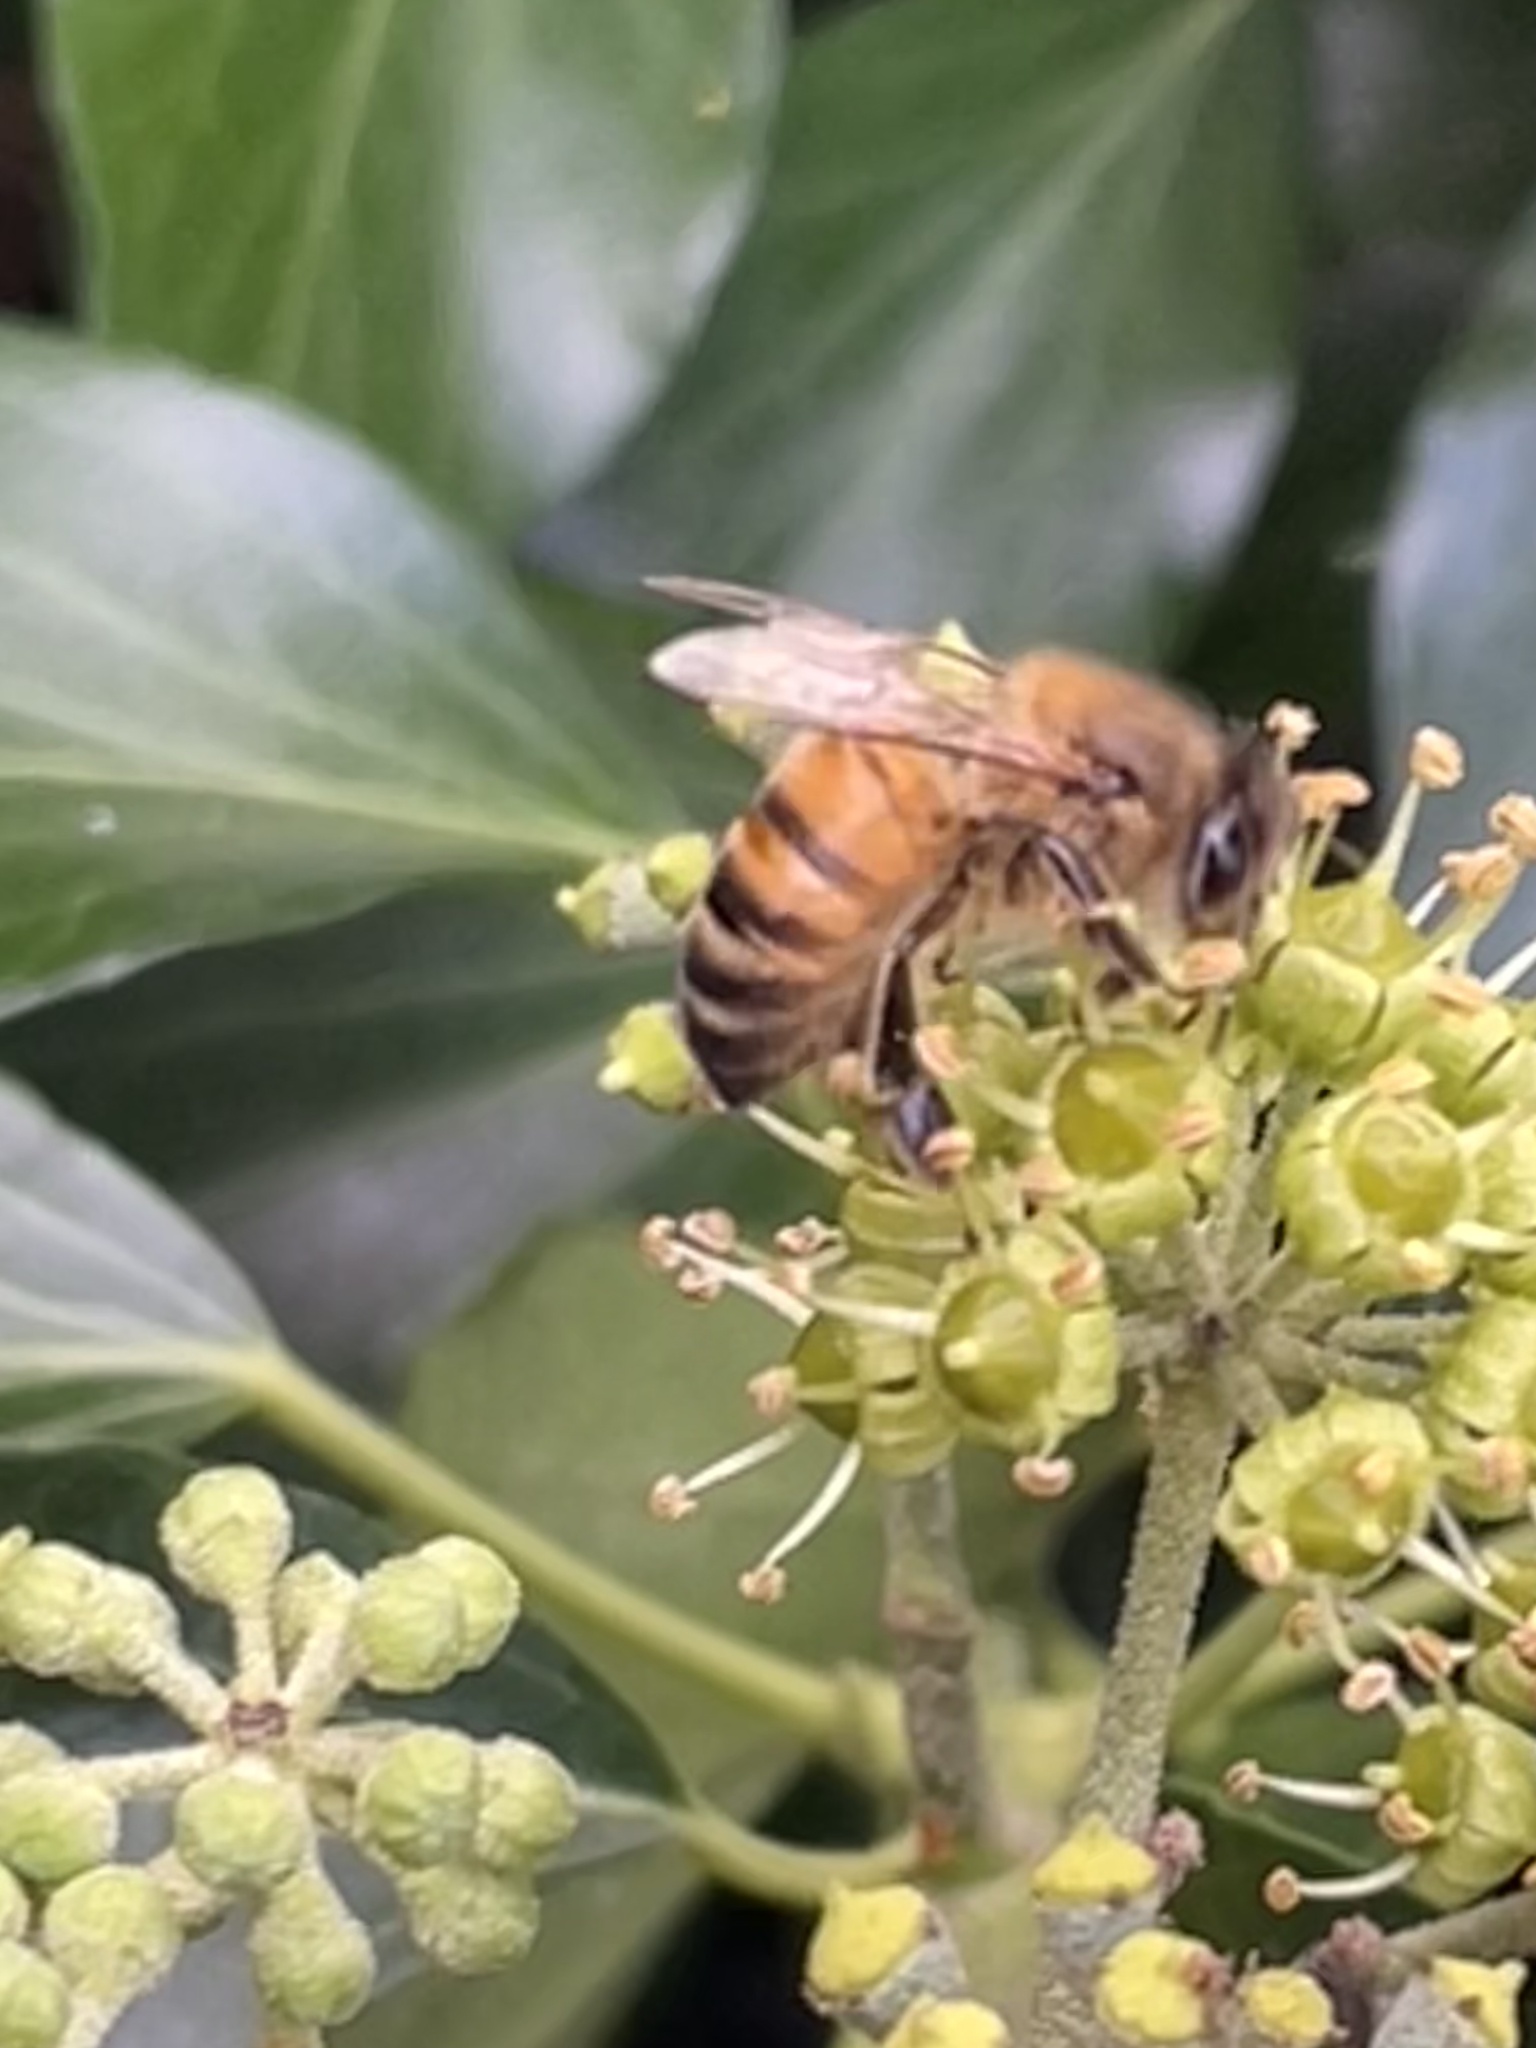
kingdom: Animalia
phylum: Arthropoda
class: Insecta
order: Hymenoptera
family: Apidae
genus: Apis
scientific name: Apis mellifera
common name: Honey bee
